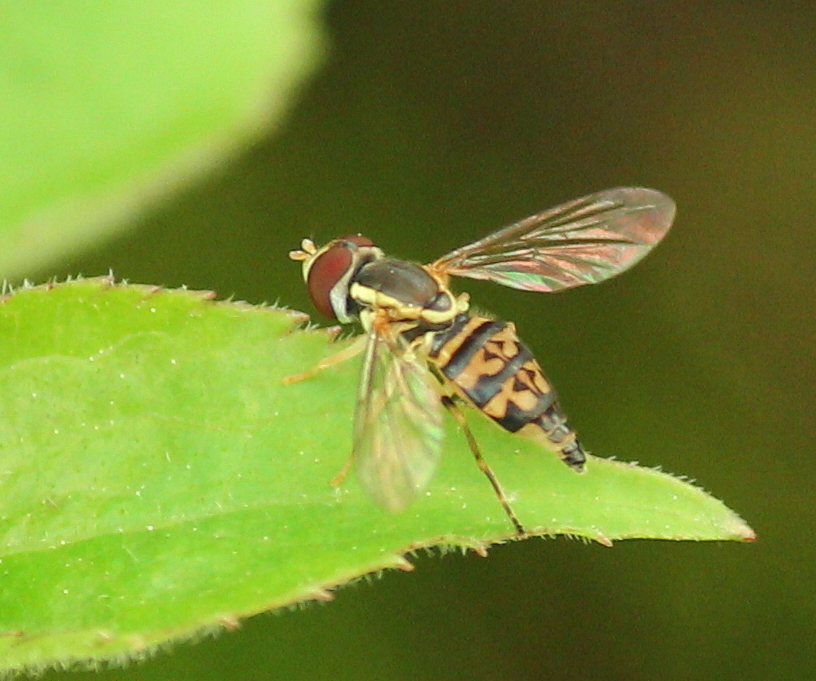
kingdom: Animalia
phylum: Arthropoda
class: Insecta
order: Diptera
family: Syrphidae
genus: Toxomerus
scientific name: Toxomerus geminatus
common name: Eastern calligrapher
